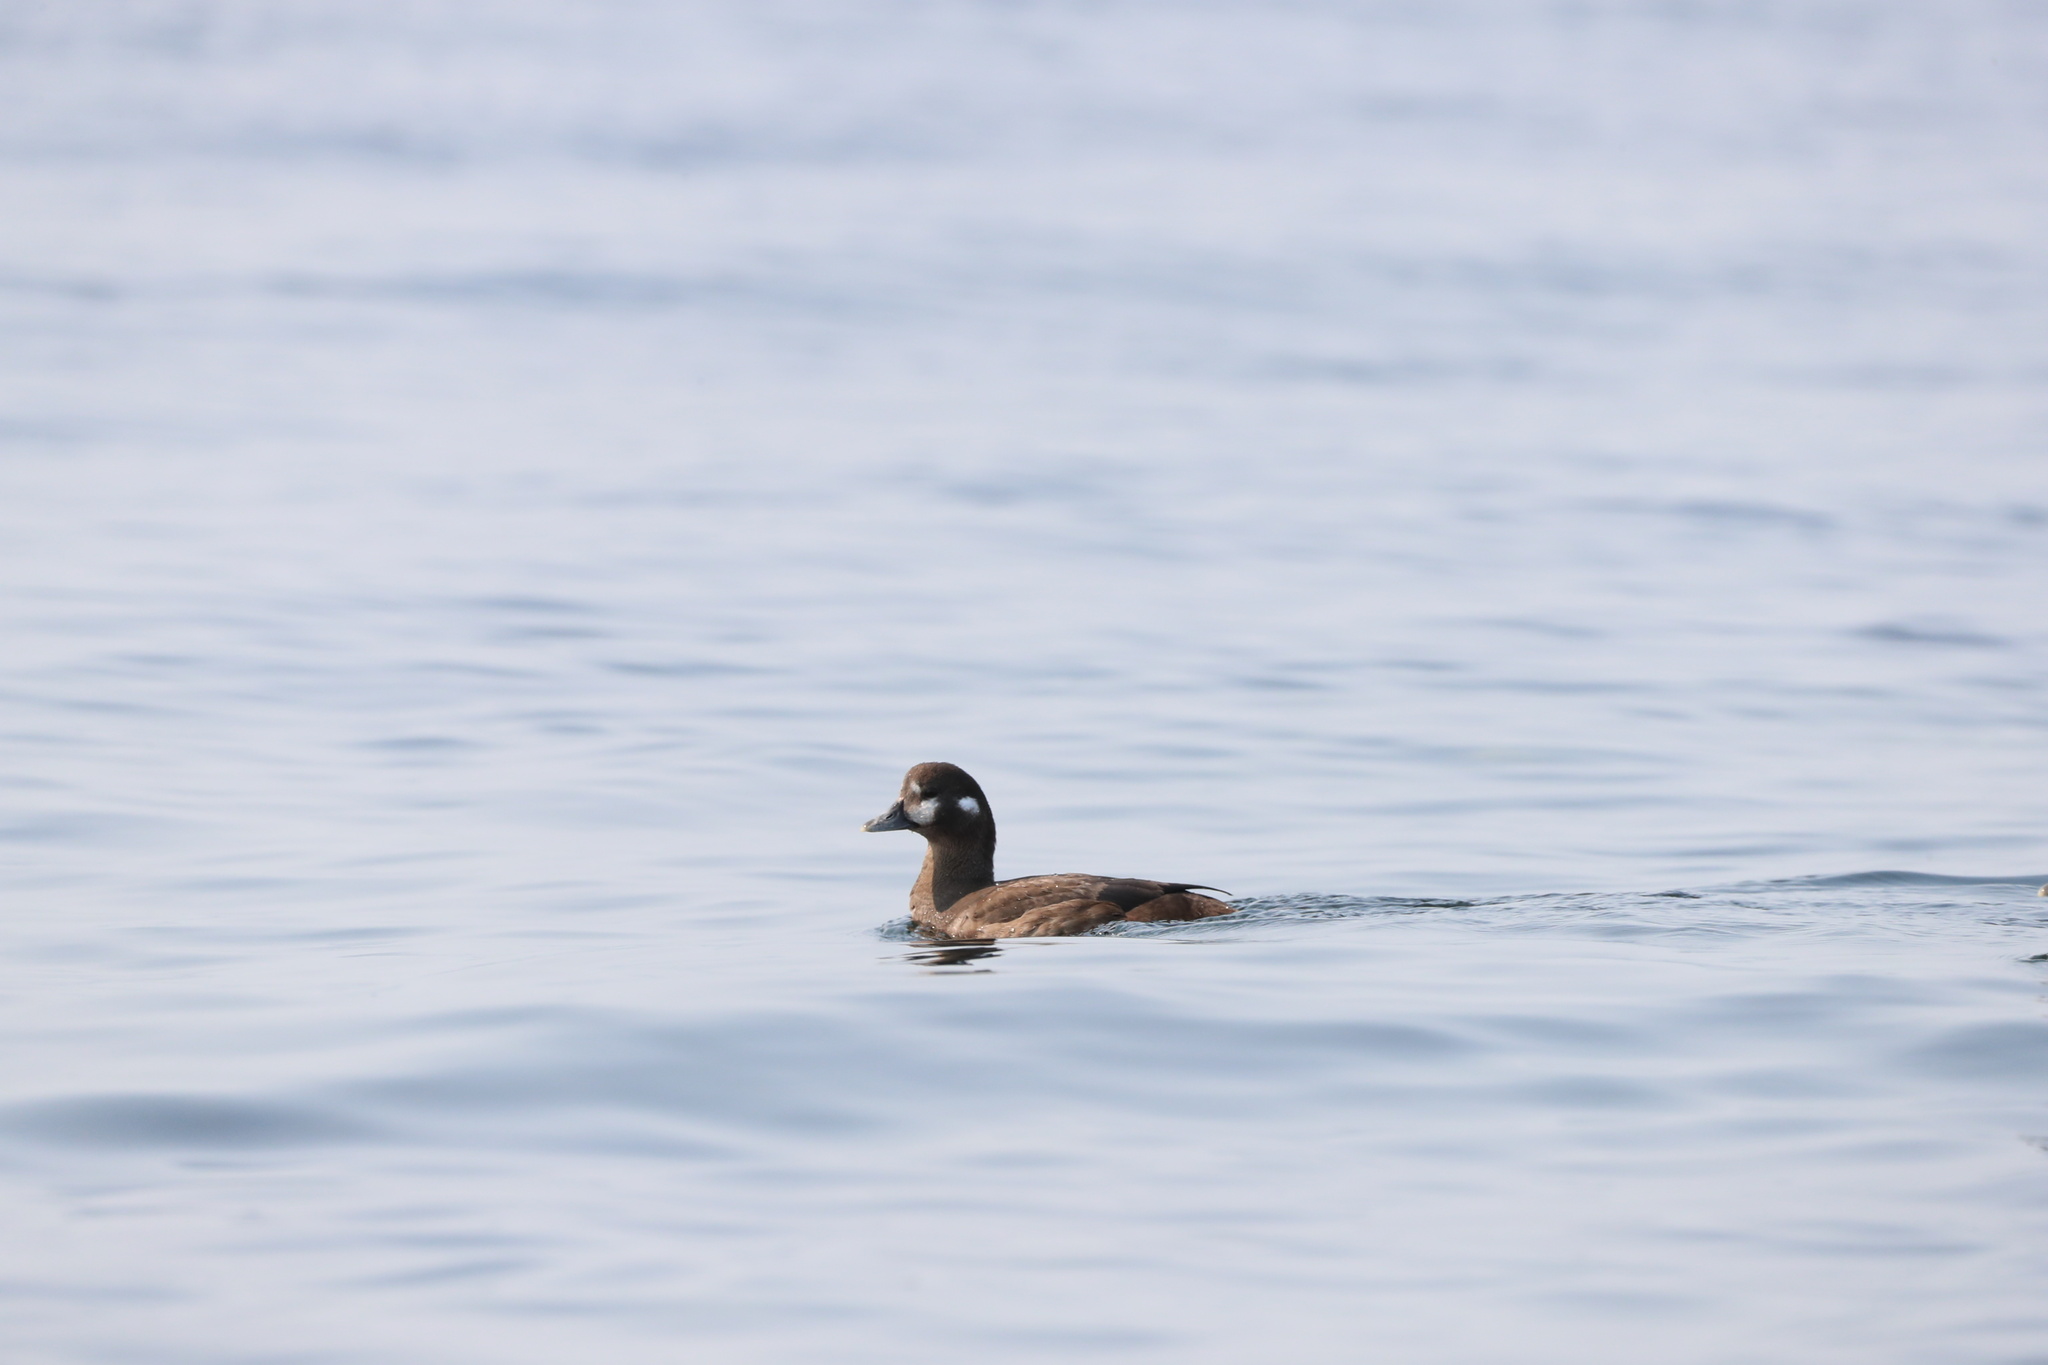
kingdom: Animalia
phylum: Chordata
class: Aves
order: Anseriformes
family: Anatidae
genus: Histrionicus
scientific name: Histrionicus histrionicus
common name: Harlequin duck
